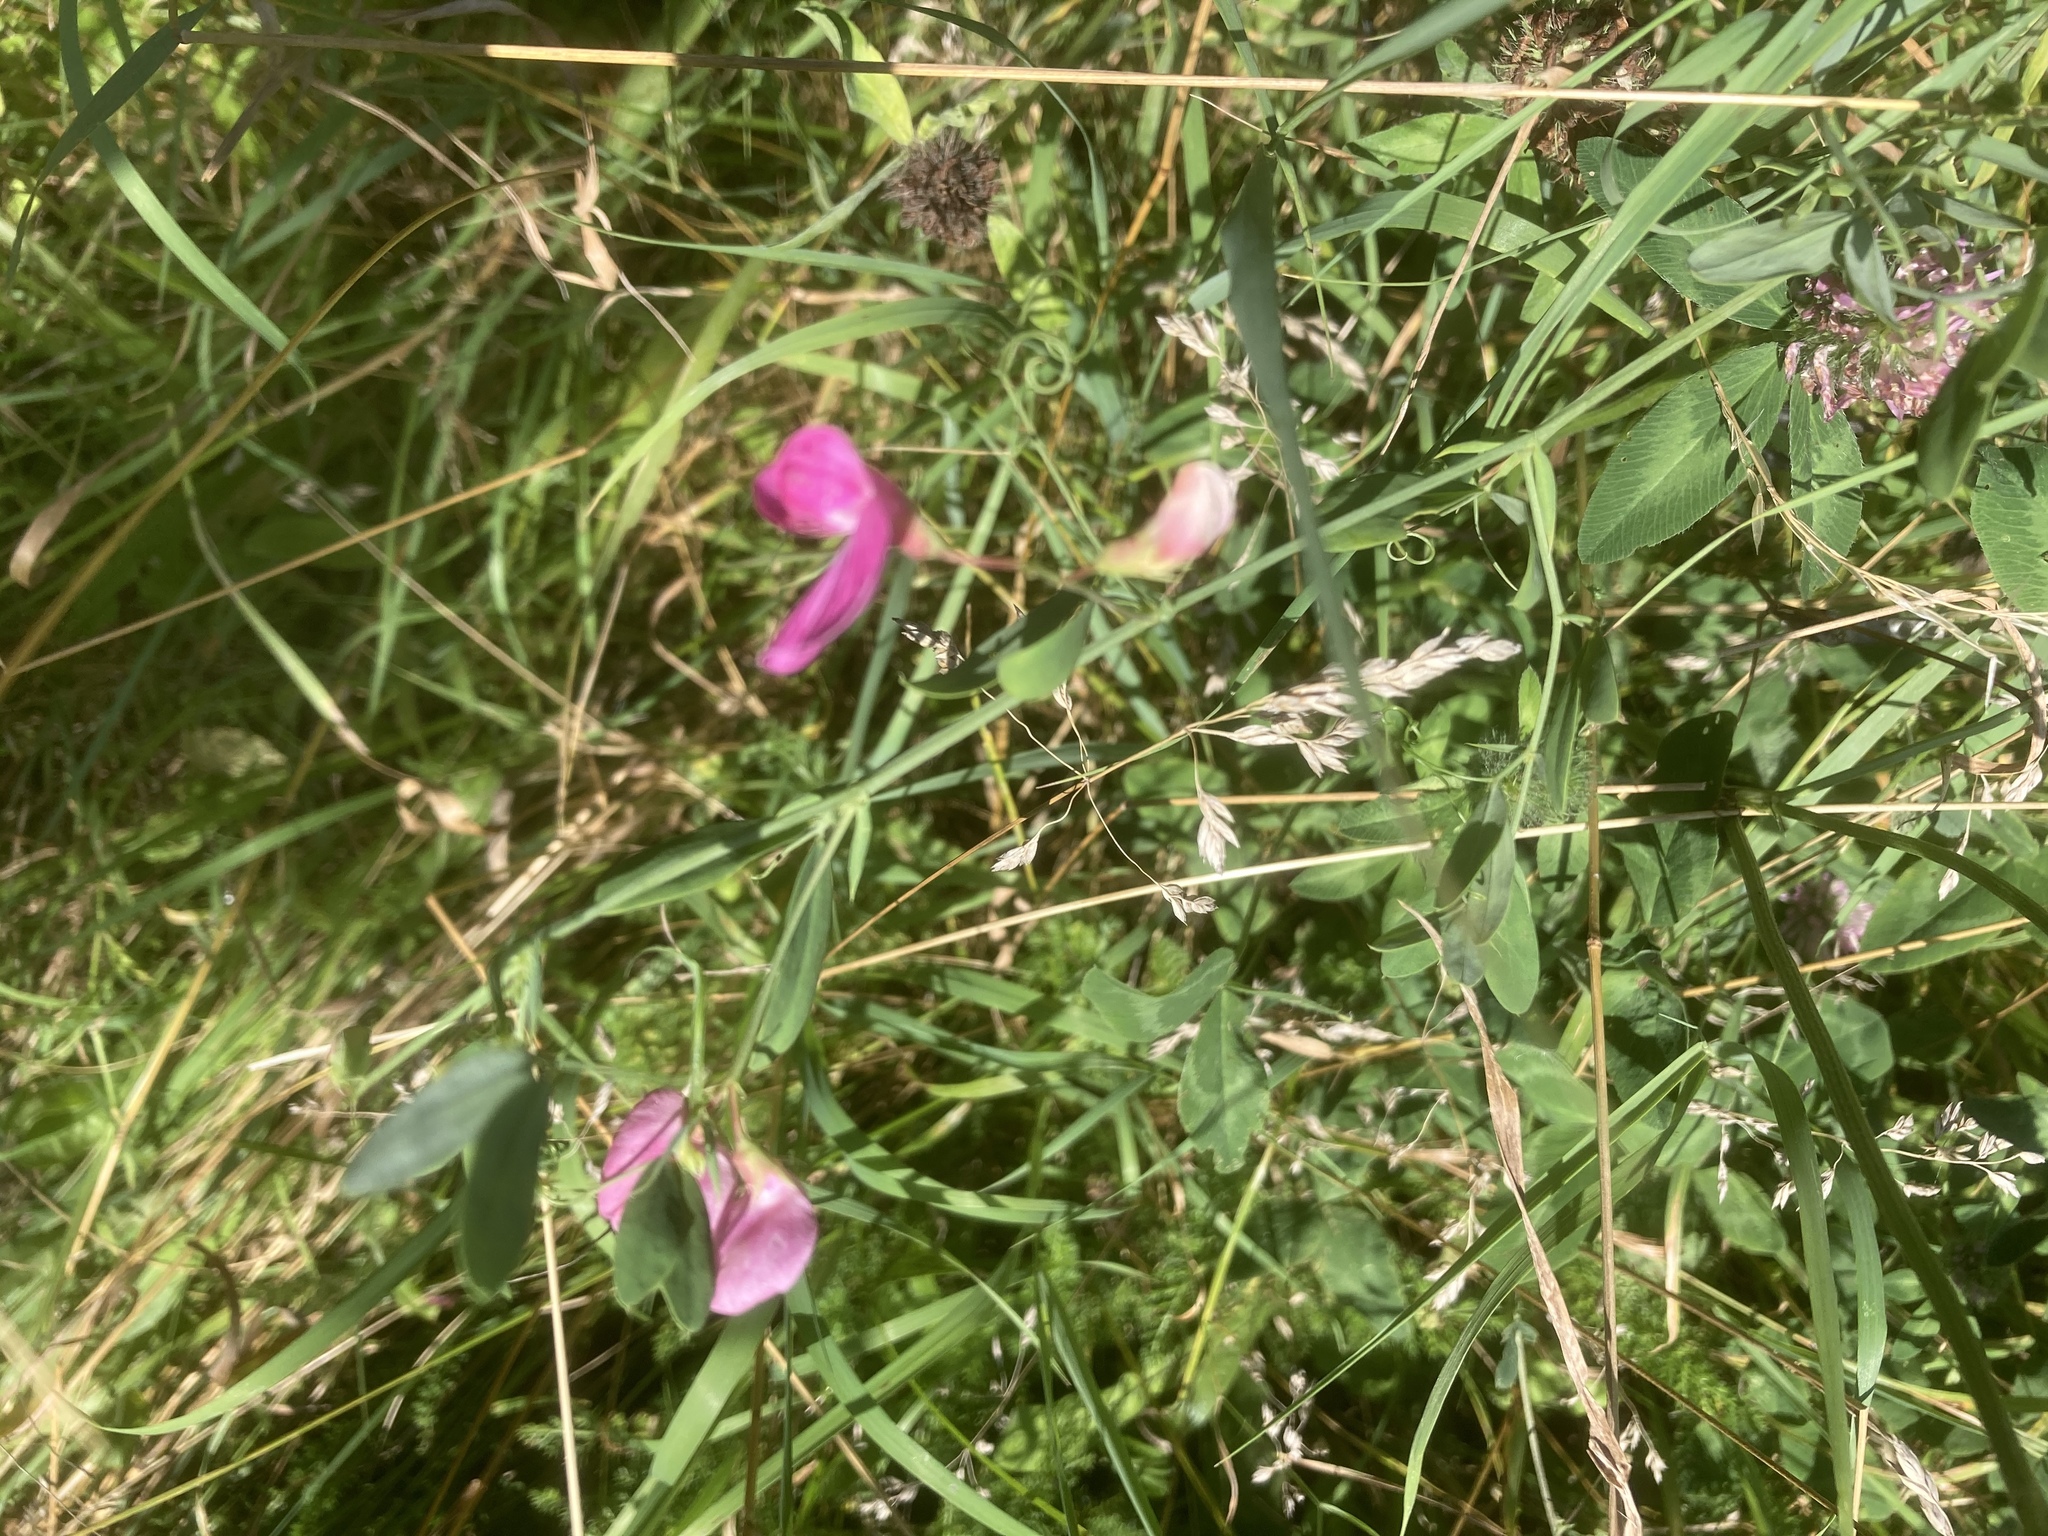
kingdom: Plantae
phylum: Tracheophyta
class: Magnoliopsida
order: Fabales
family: Fabaceae
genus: Lathyrus
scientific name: Lathyrus tuberosus
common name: Tuberous pea
